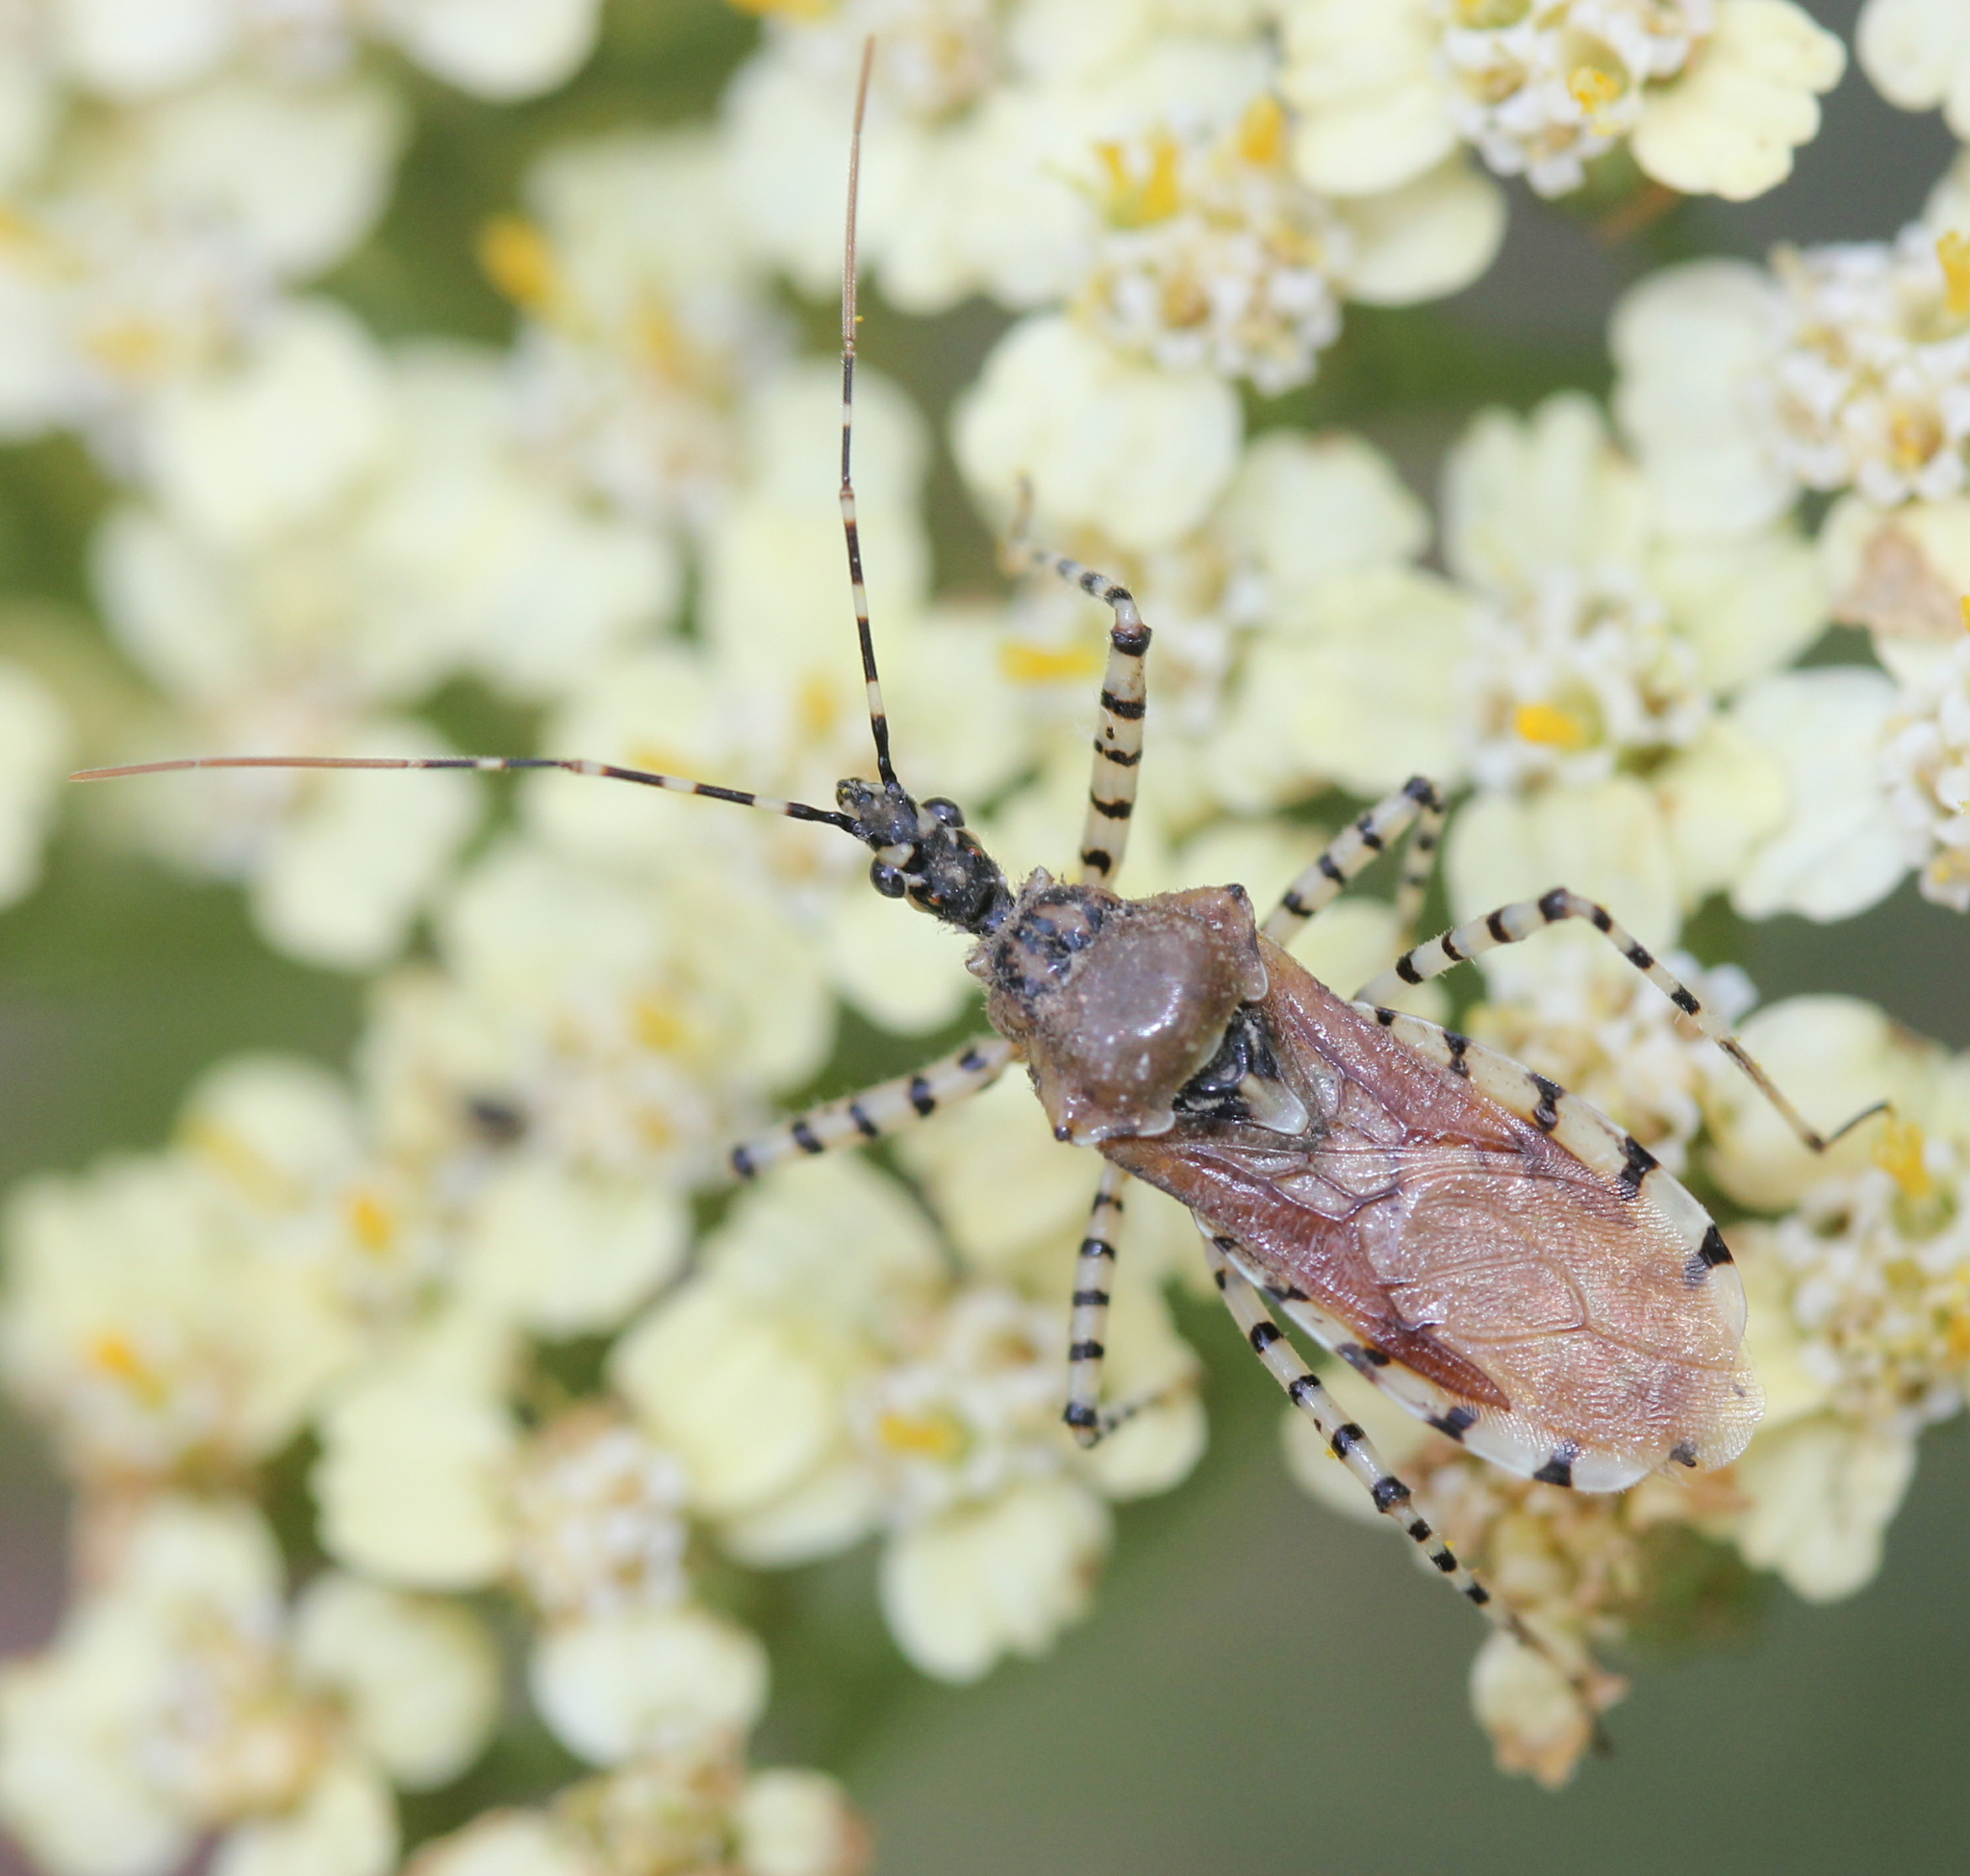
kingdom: Animalia
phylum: Arthropoda
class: Insecta
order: Hemiptera
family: Reduviidae
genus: Pselliopus
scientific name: Pselliopus cinctus
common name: Ringed assassin bug
